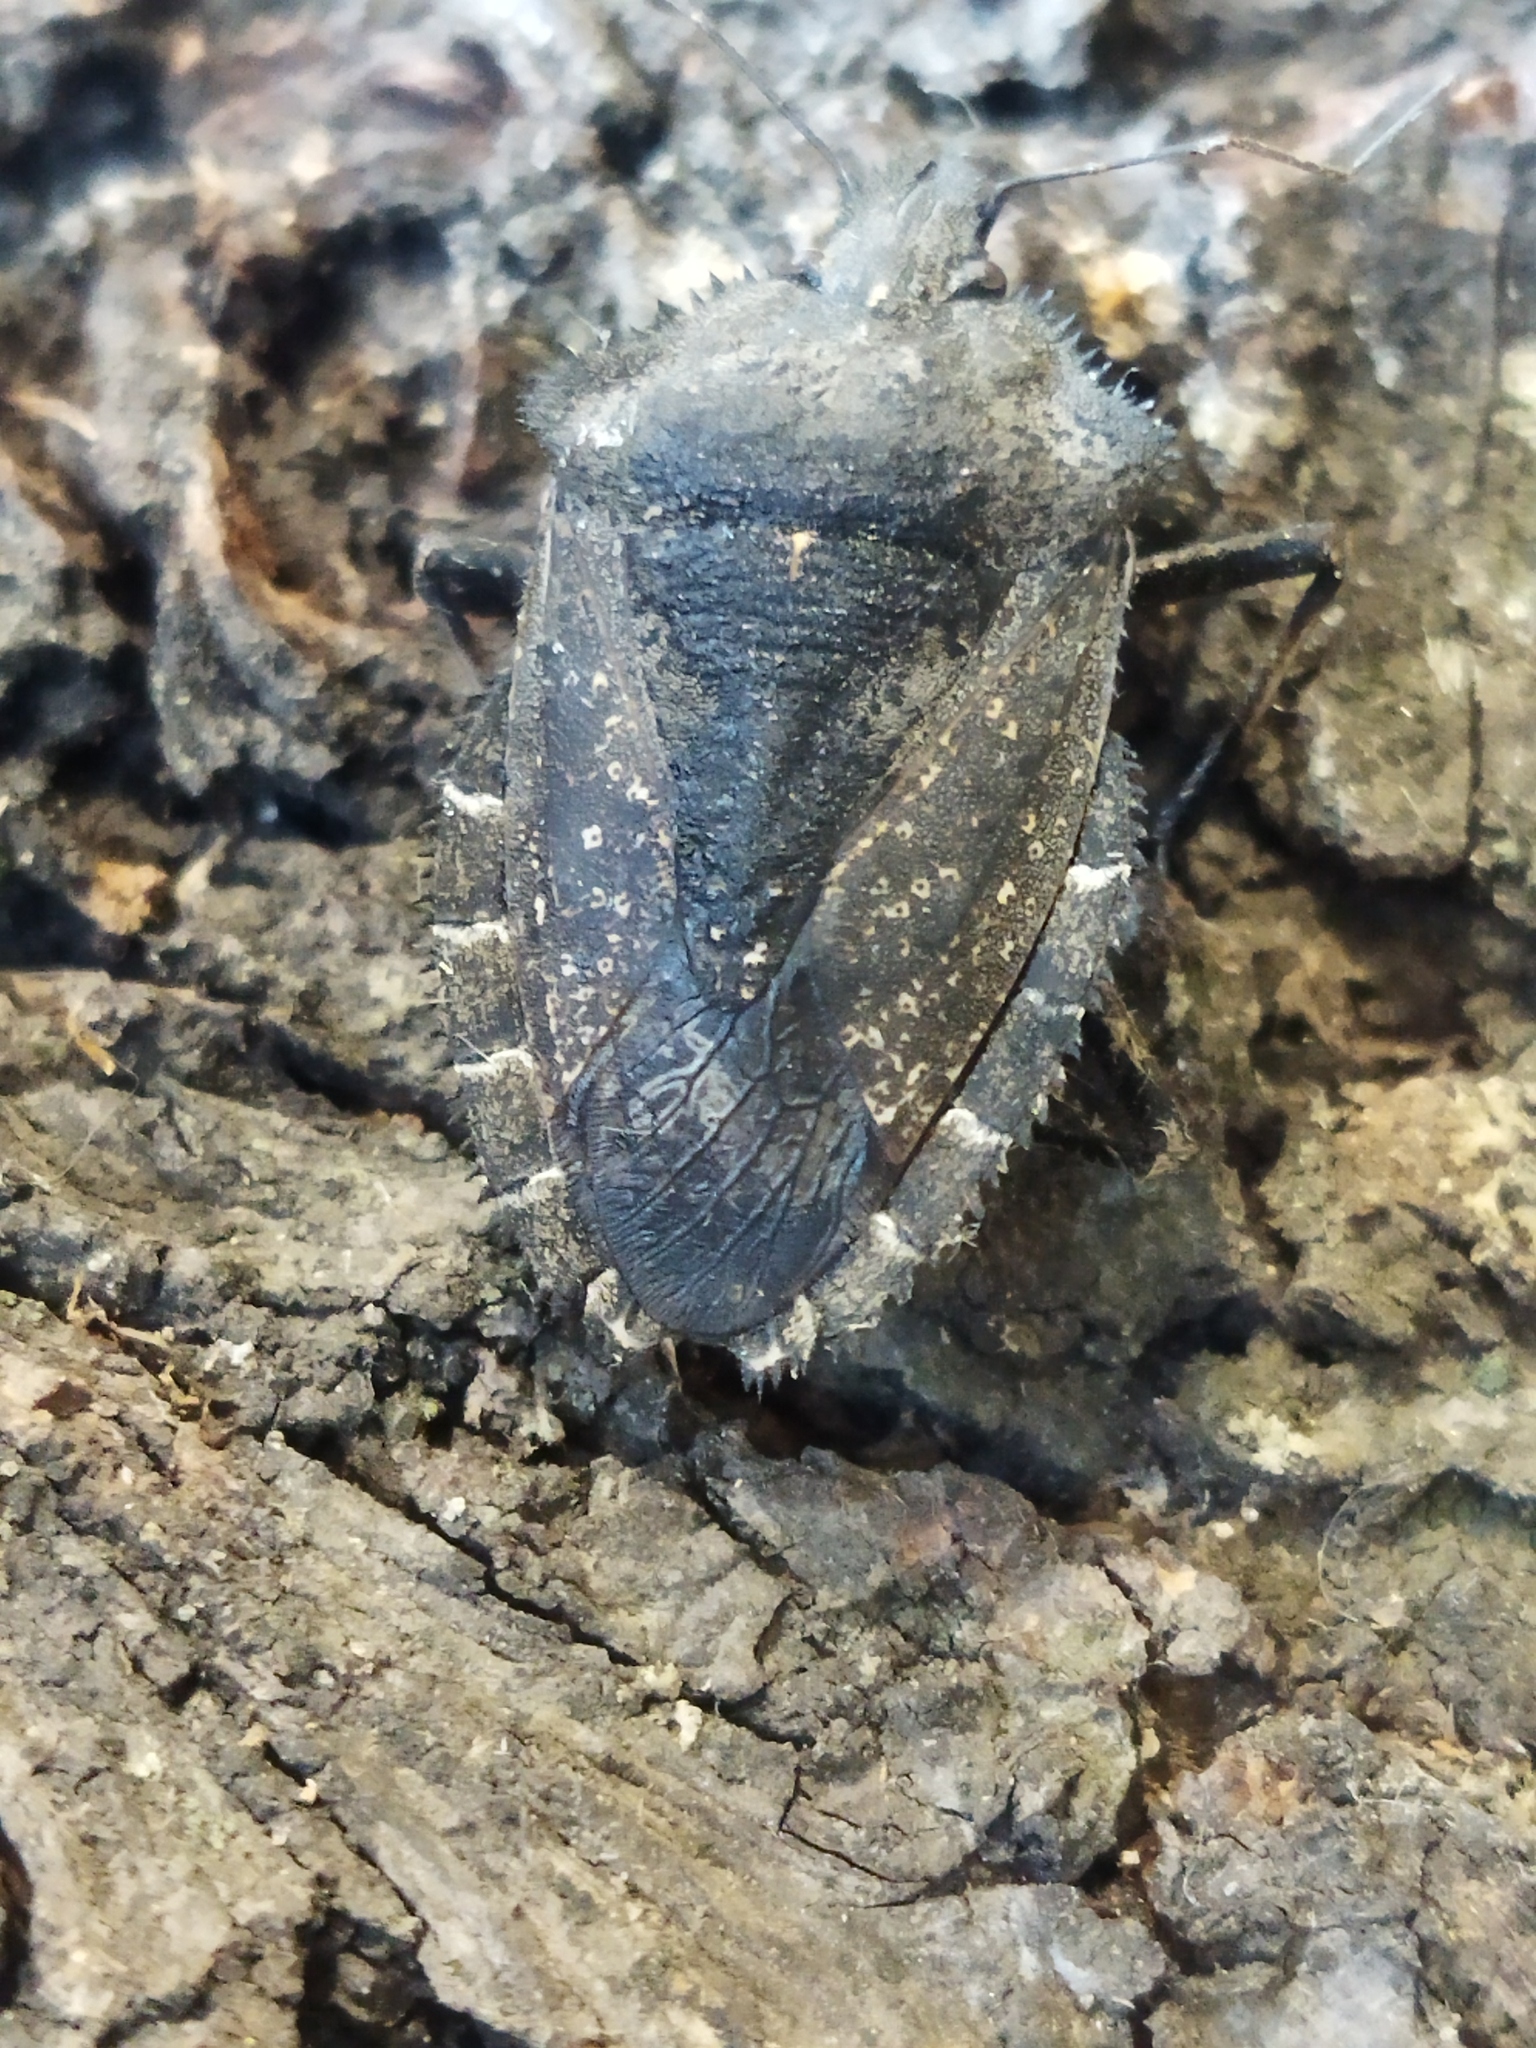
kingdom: Animalia
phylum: Arthropoda
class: Insecta
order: Hemiptera
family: Pentatomidae
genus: Mustha
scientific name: Mustha spinosula
